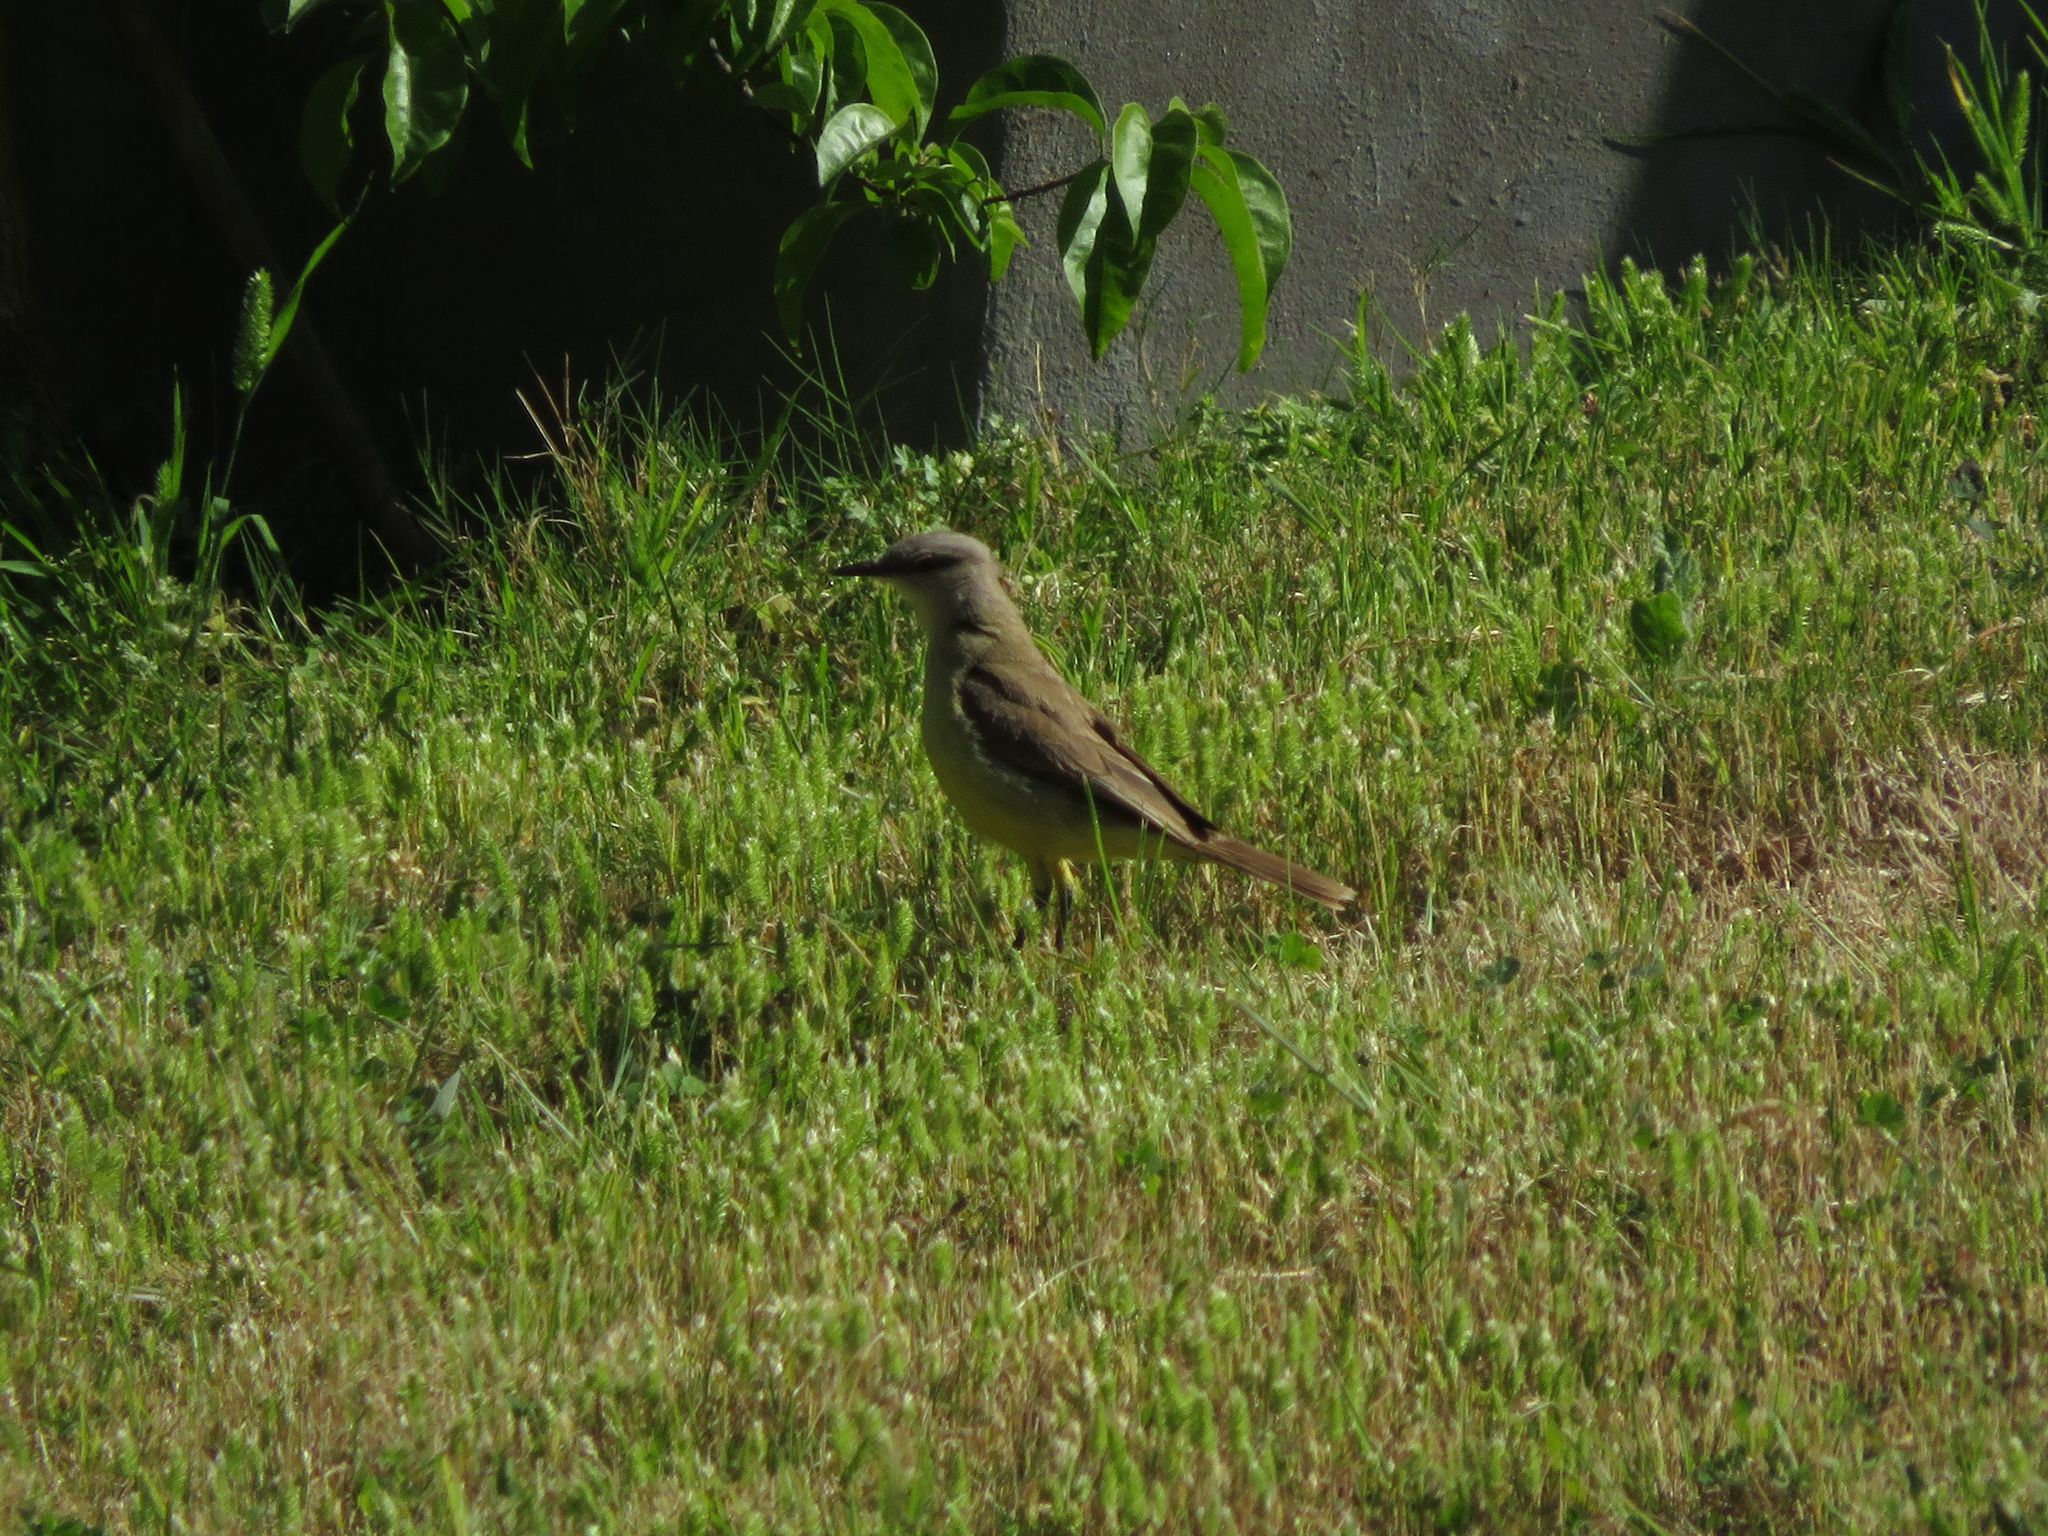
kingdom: Animalia
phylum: Chordata
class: Aves
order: Passeriformes
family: Tyrannidae
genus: Machetornis
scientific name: Machetornis rixosa
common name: Cattle tyrant
